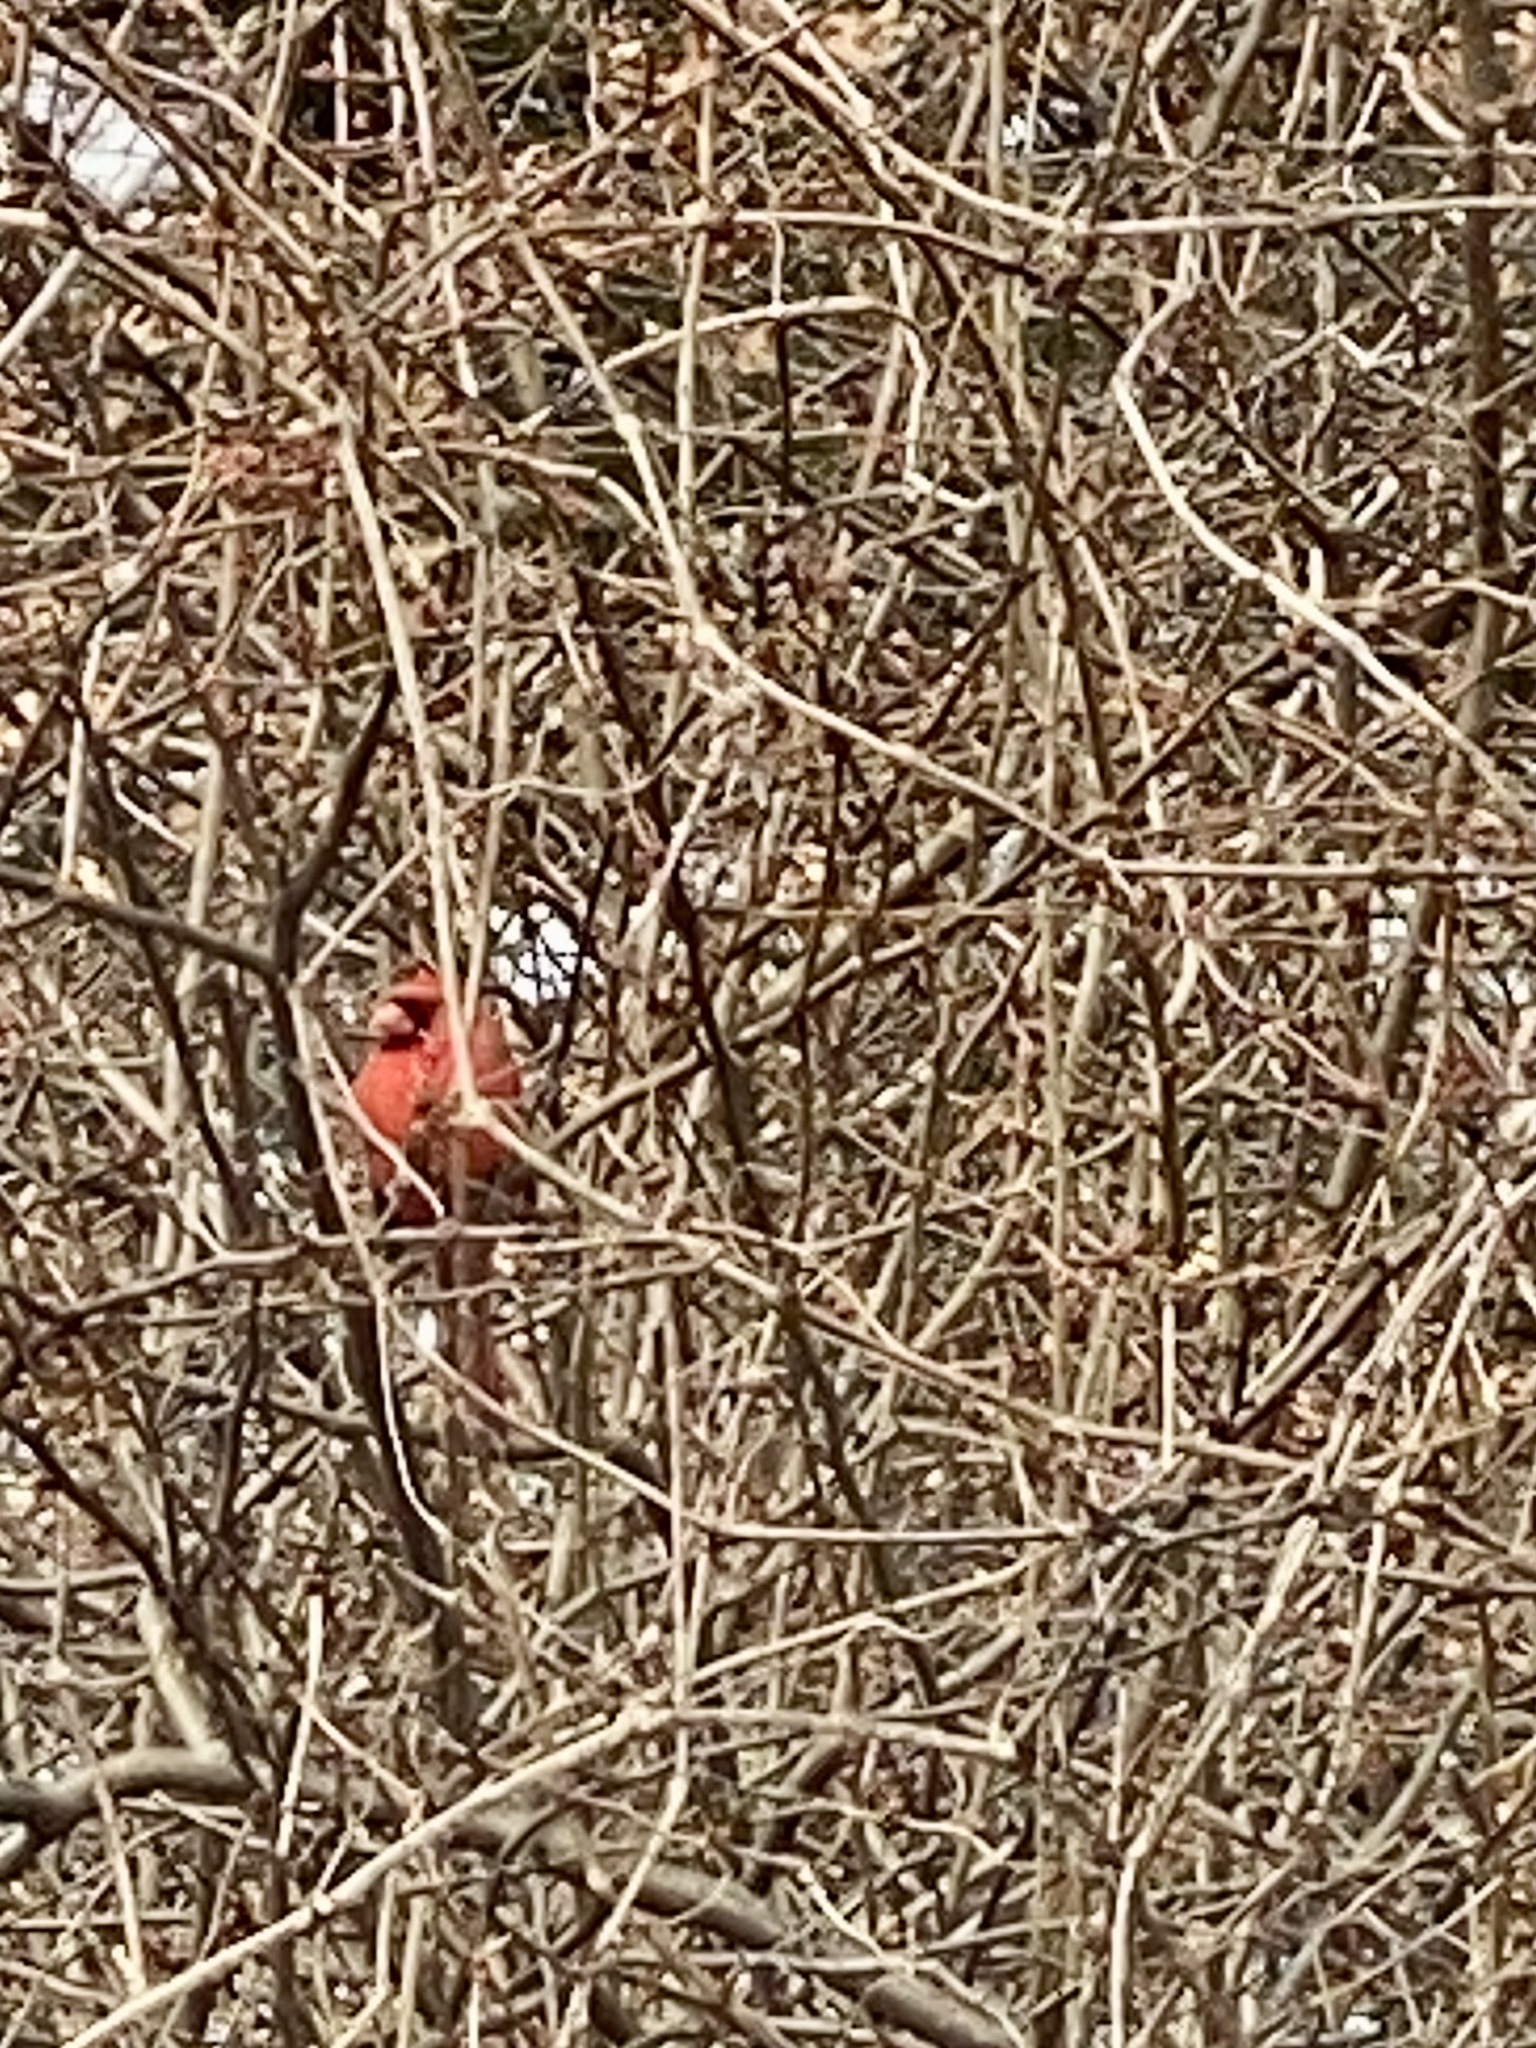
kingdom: Animalia
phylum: Chordata
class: Aves
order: Passeriformes
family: Cardinalidae
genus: Cardinalis
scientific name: Cardinalis cardinalis
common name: Northern cardinal
